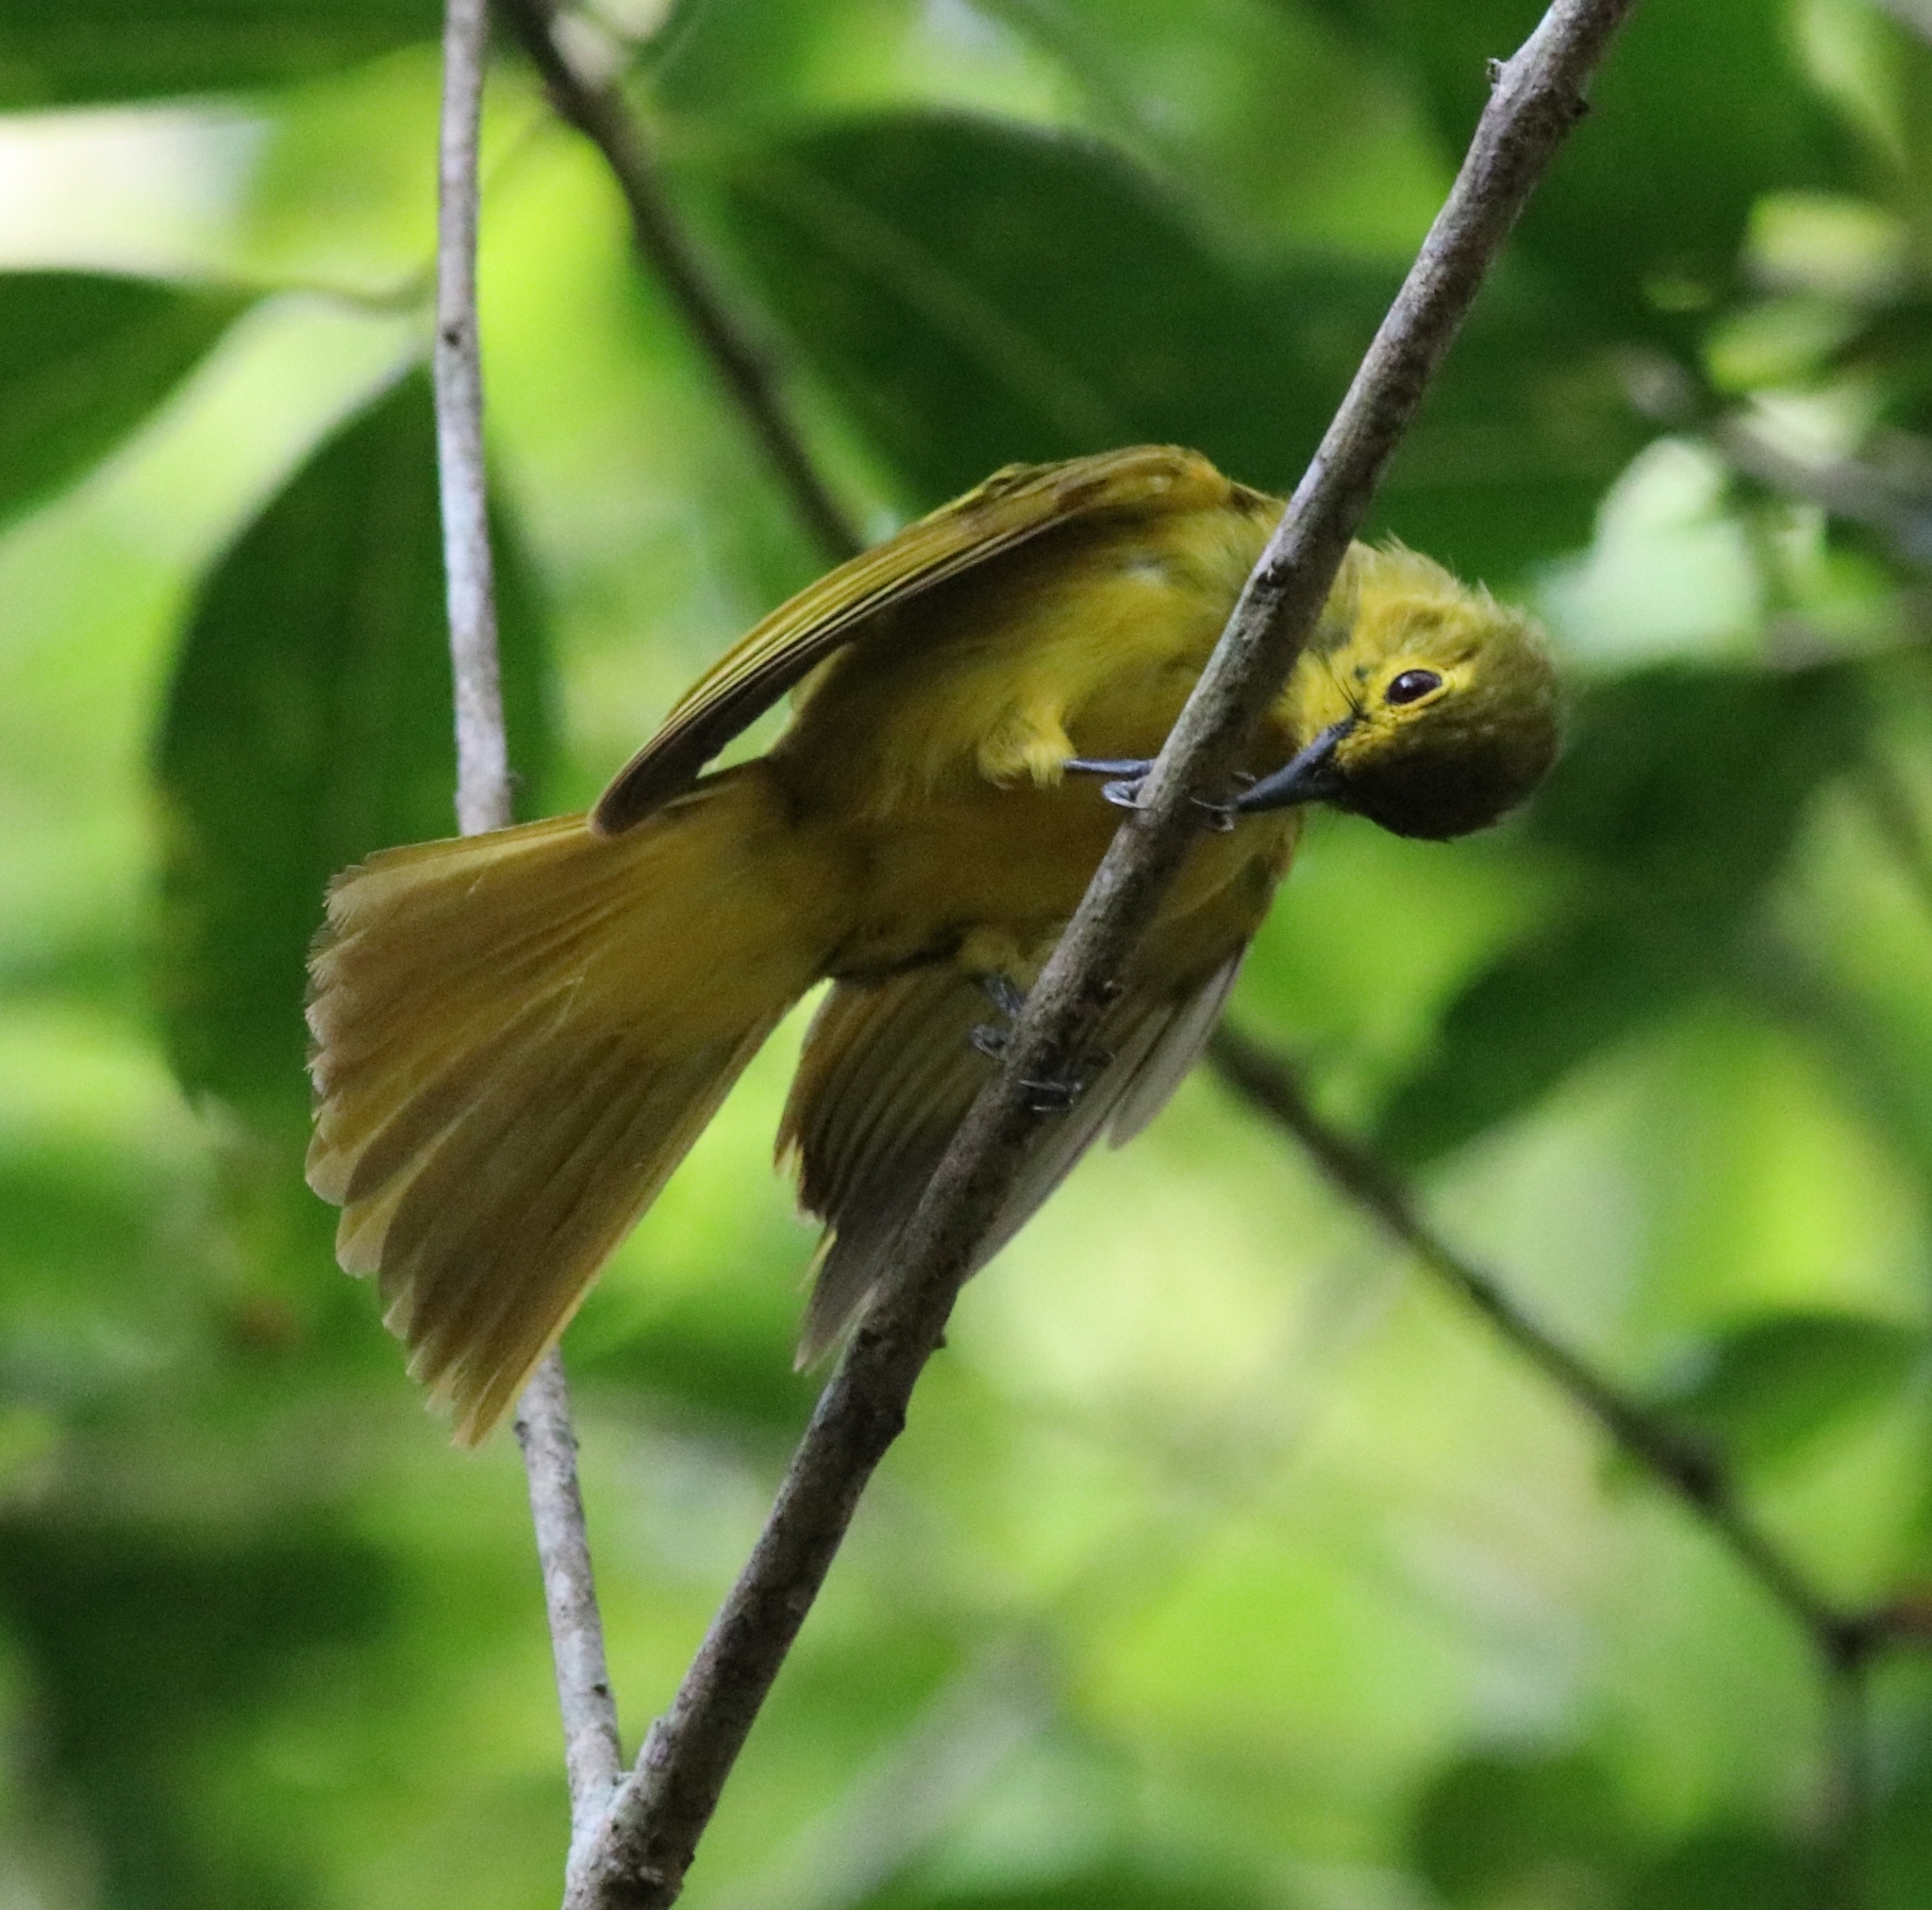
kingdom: Animalia
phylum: Chordata
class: Aves
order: Passeriformes
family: Pycnonotidae
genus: Acritillas
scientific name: Acritillas indica
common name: Yellow-browed bulbul
